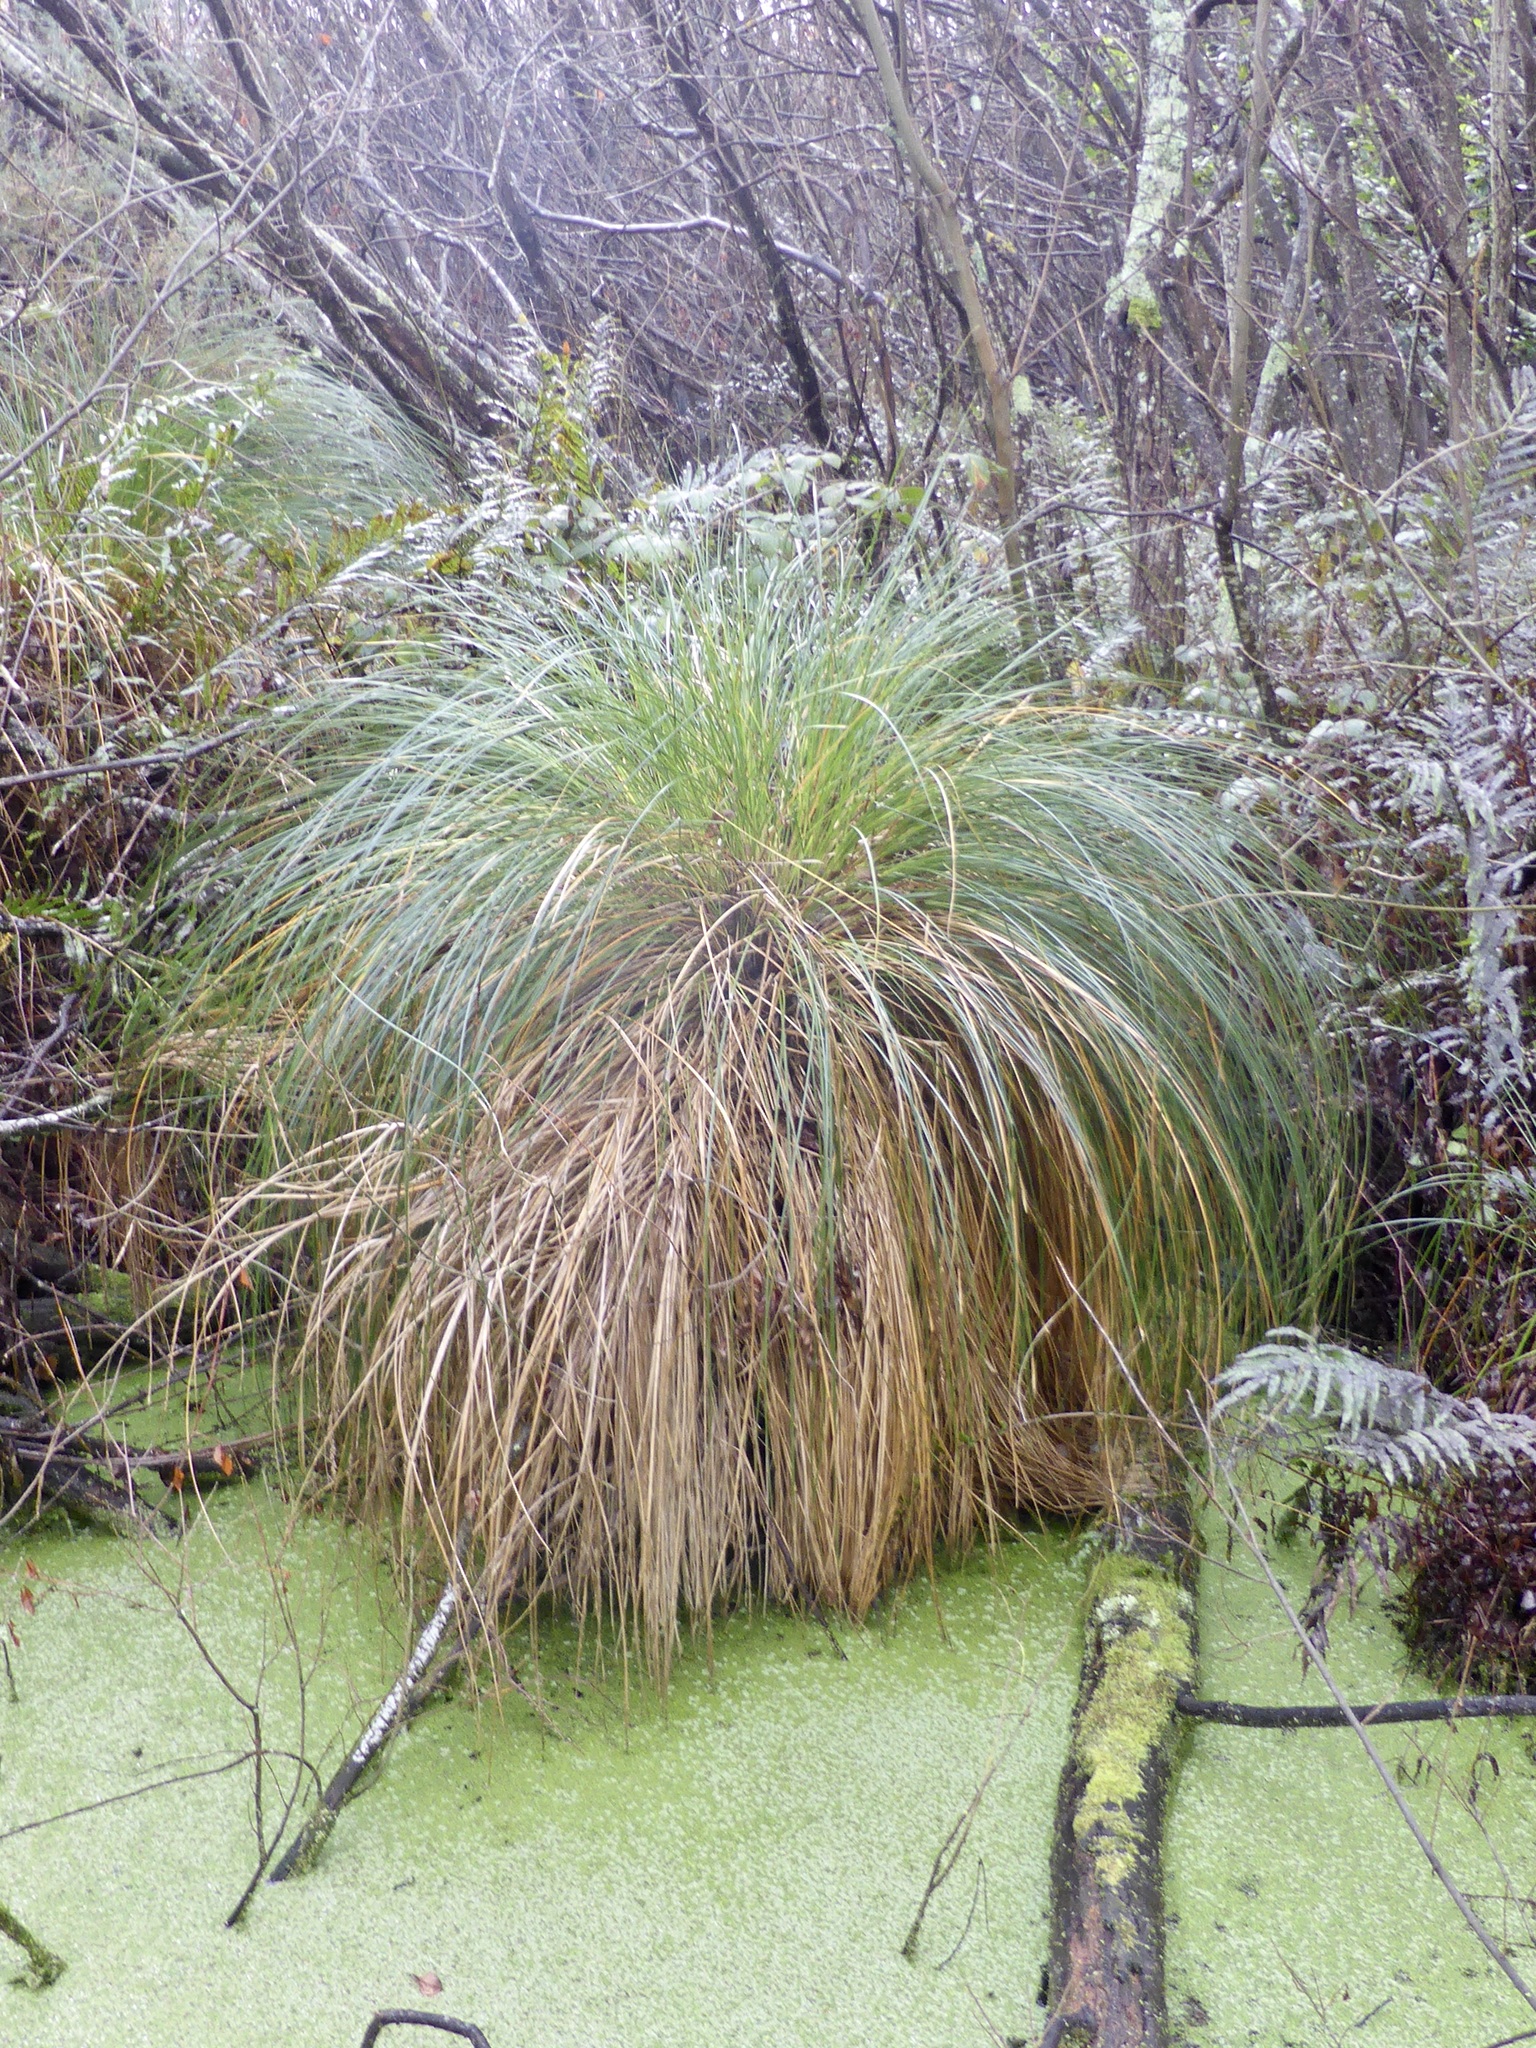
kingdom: Plantae
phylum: Tracheophyta
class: Liliopsida
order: Poales
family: Cyperaceae
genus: Carex
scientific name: Carex secta
